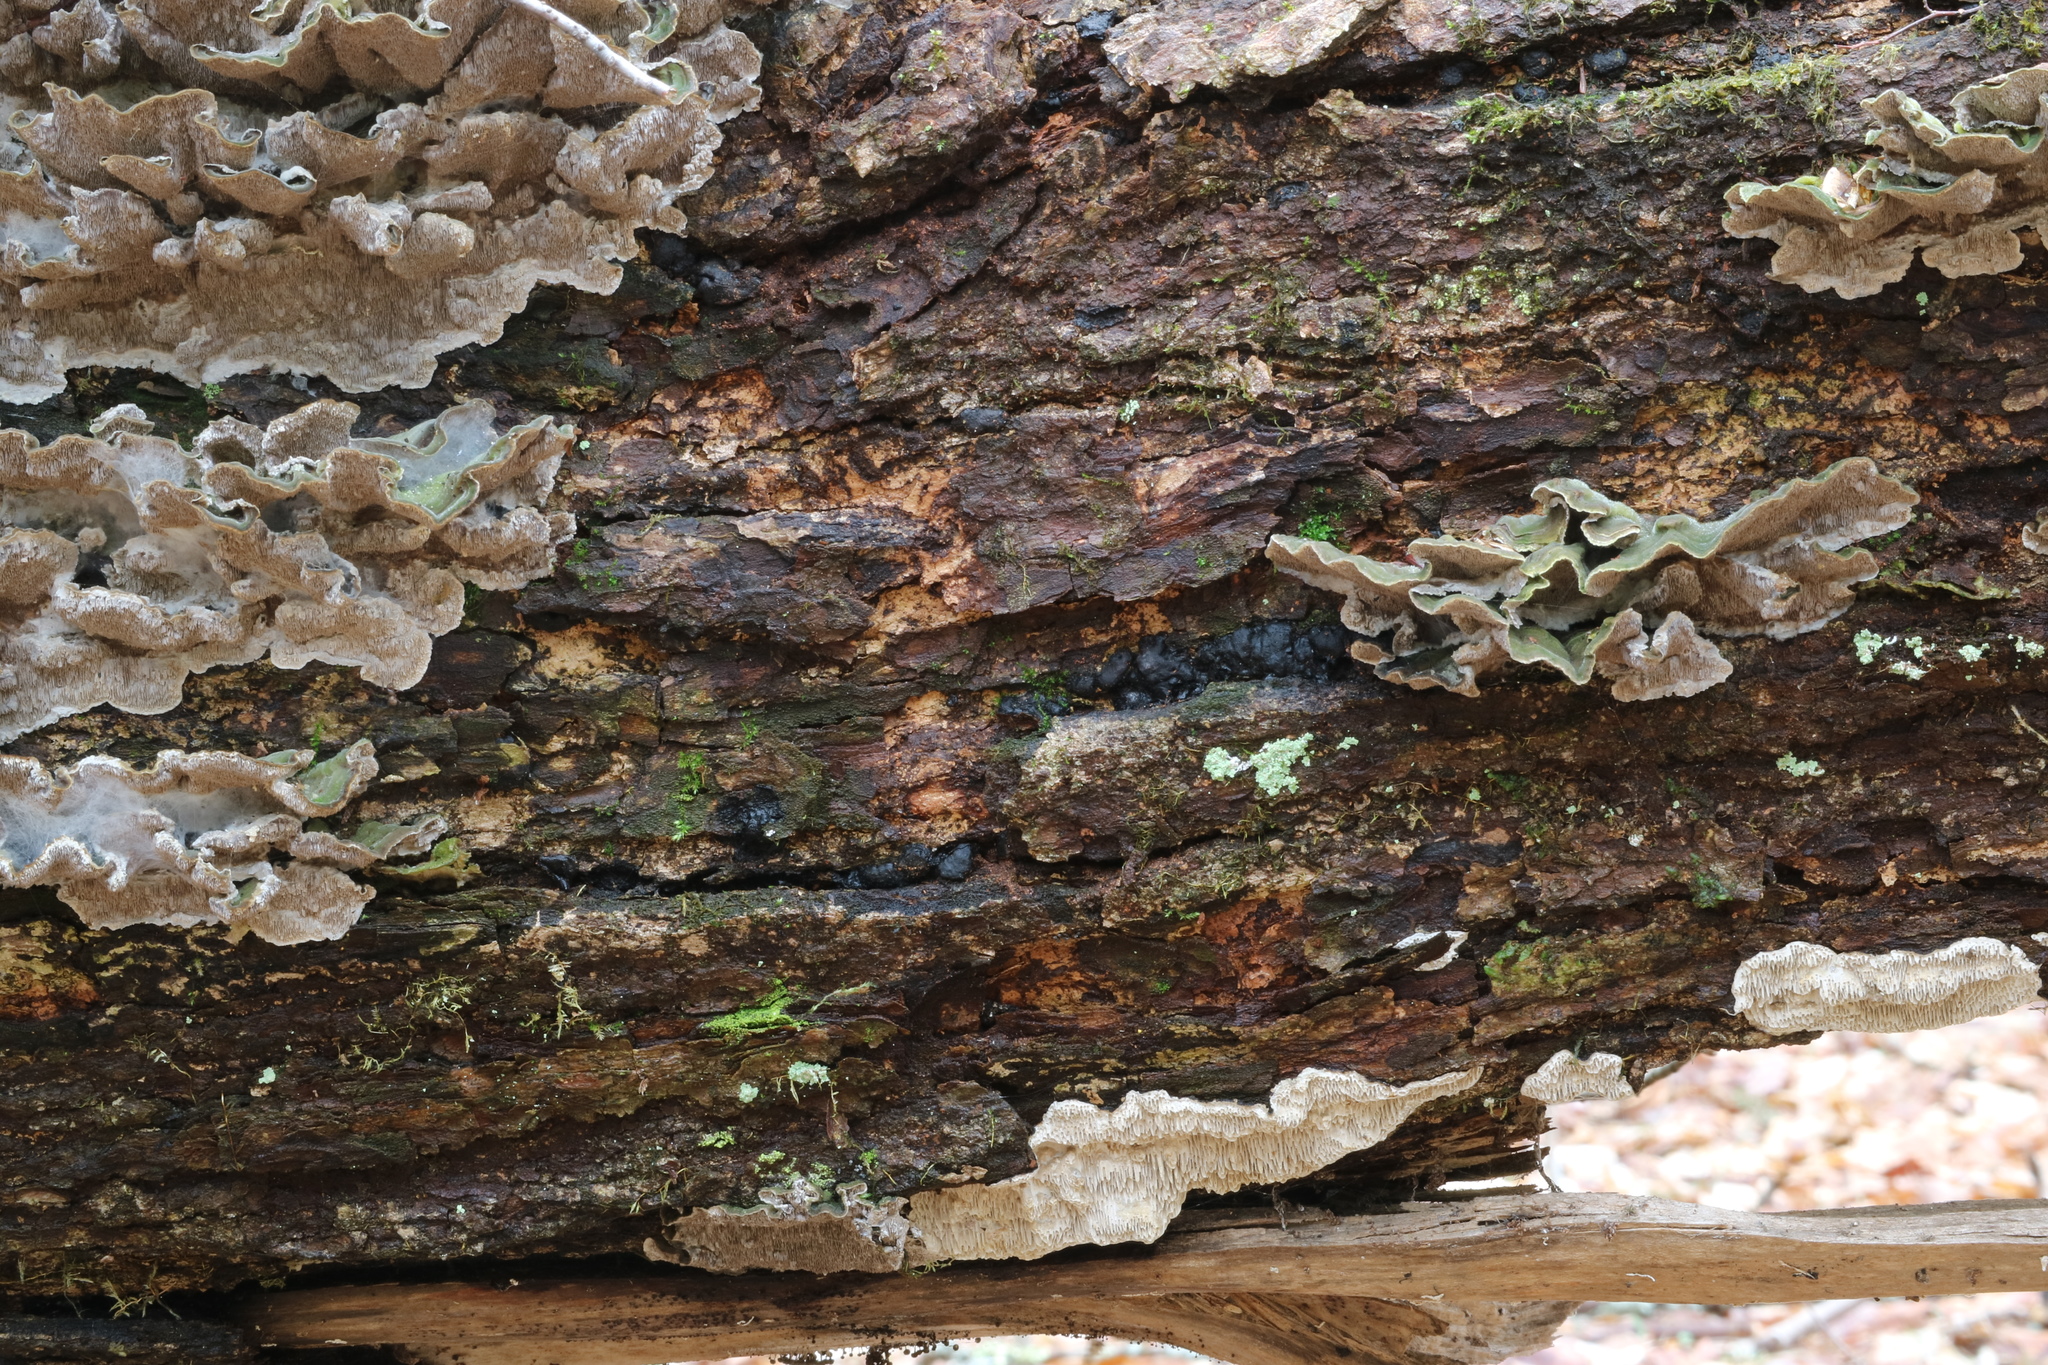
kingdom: Fungi
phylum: Basidiomycota
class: Agaricomycetes
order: Polyporales
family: Polyporaceae
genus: Podofomes
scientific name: Podofomes mollis
